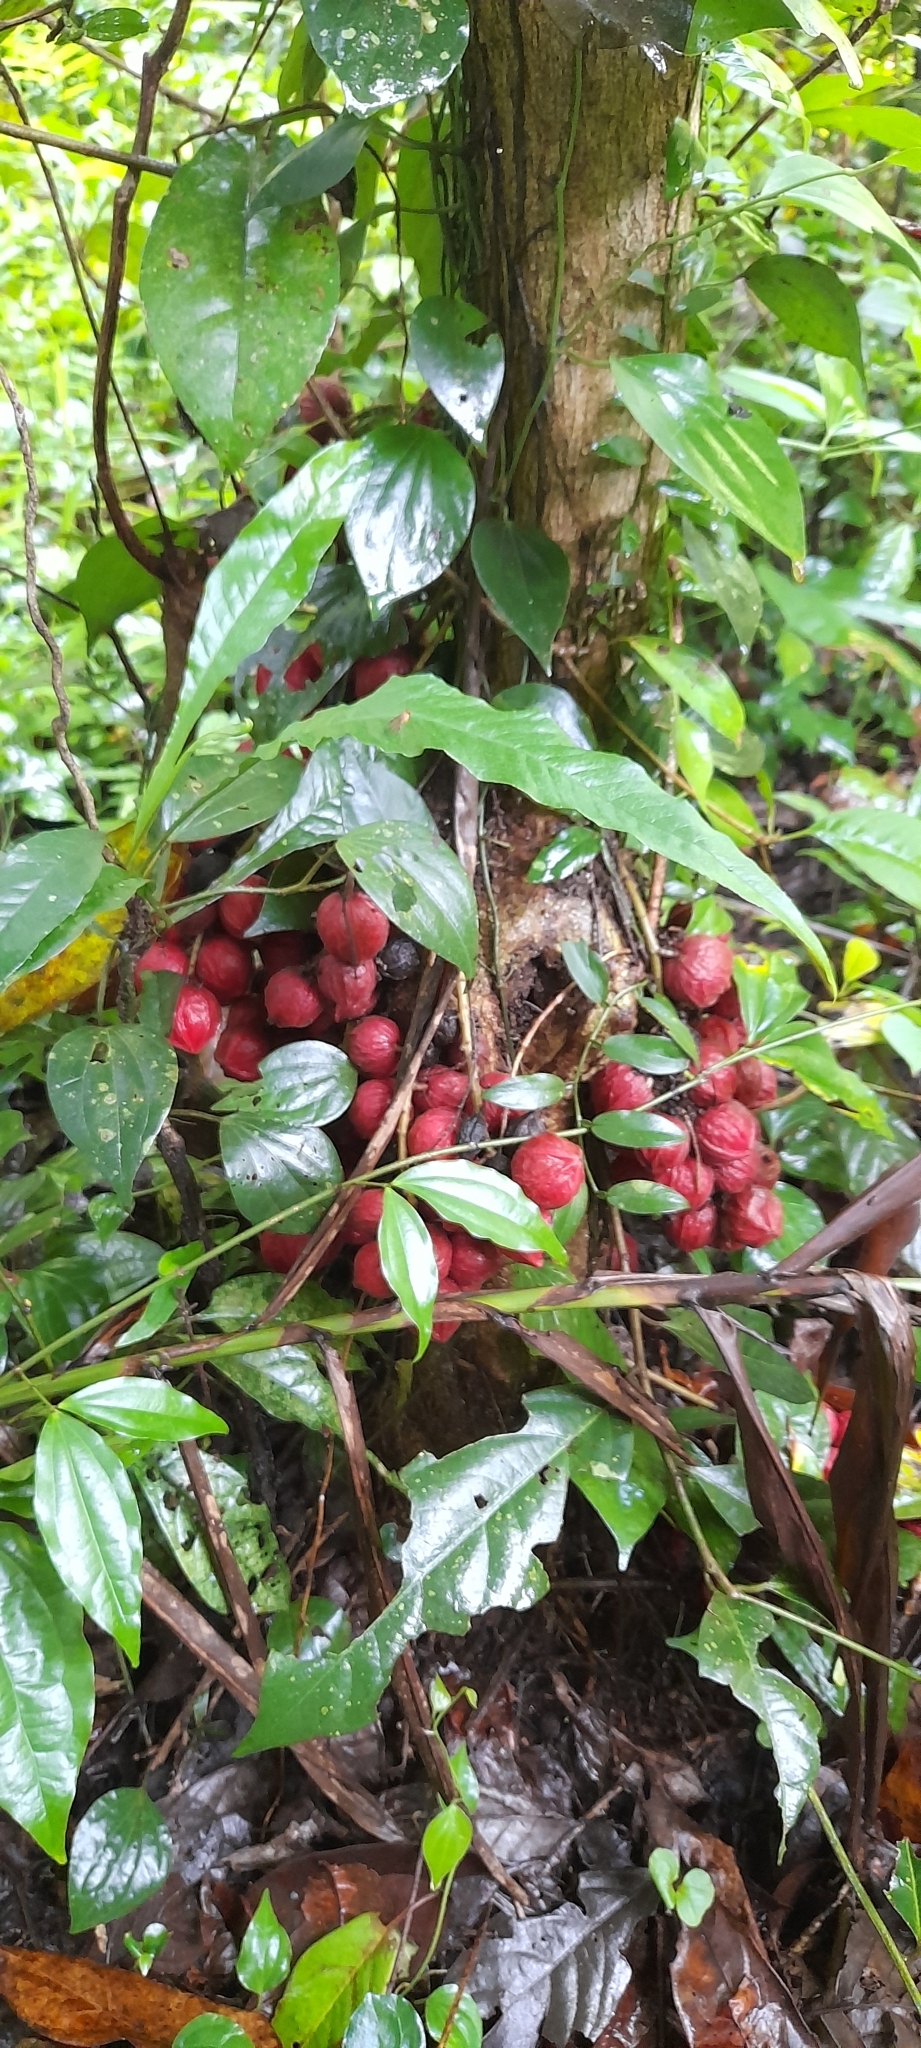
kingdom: Plantae
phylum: Tracheophyta
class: Magnoliopsida
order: Malpighiales
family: Phyllanthaceae
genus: Baccaurea
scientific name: Baccaurea courtallensis
